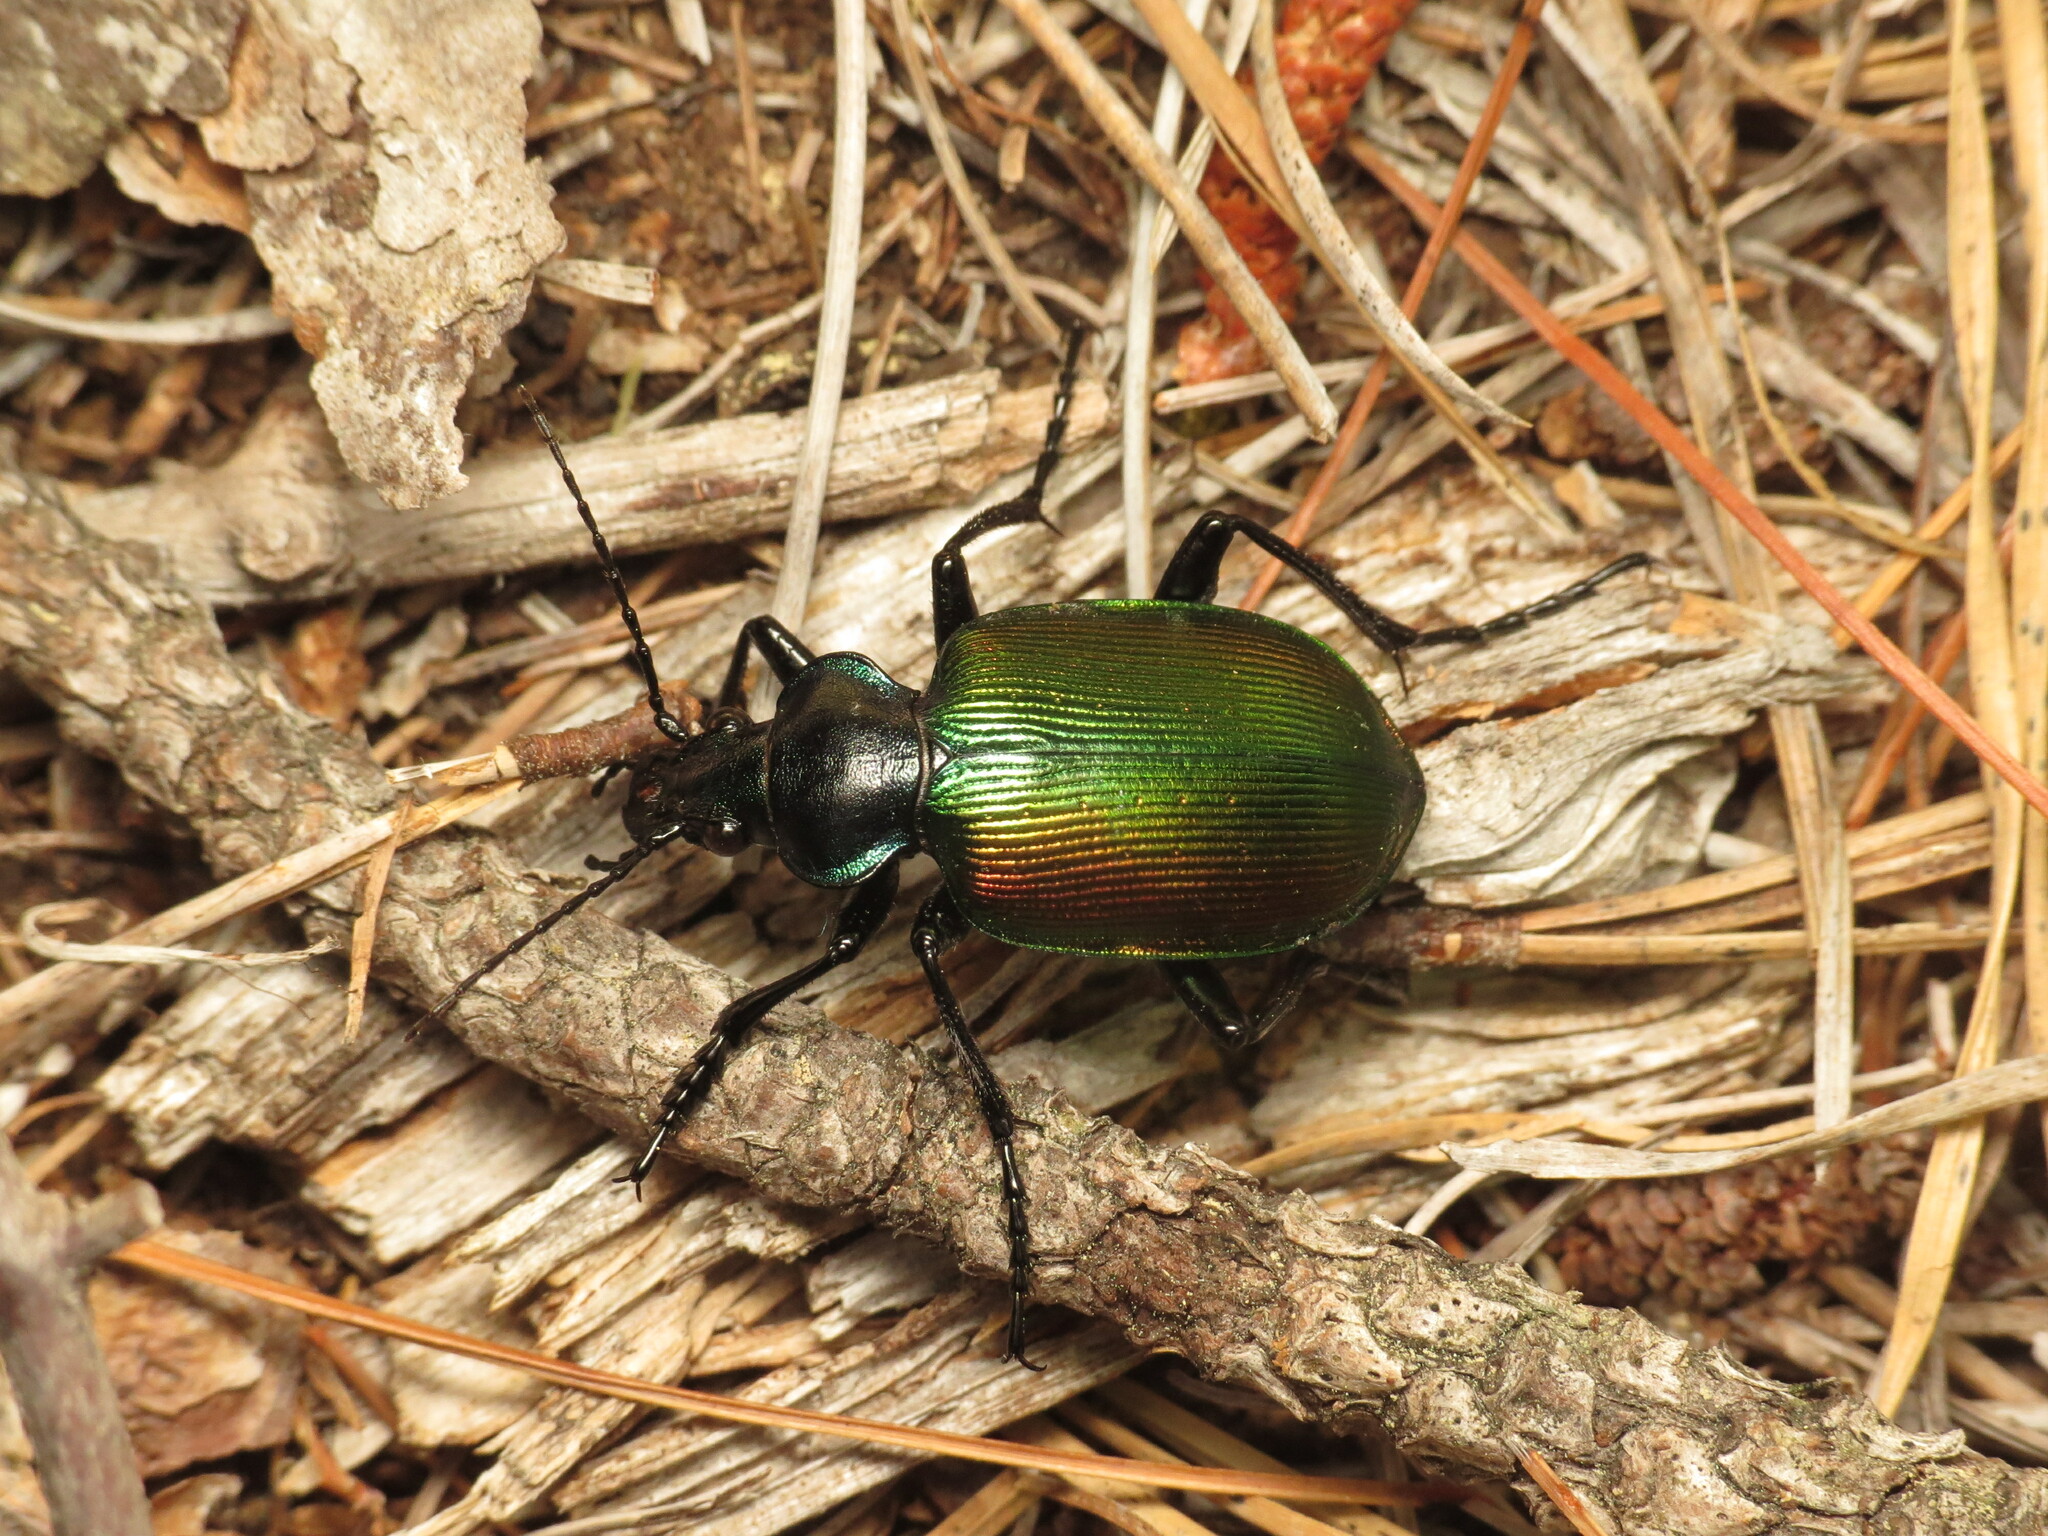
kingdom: Animalia
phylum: Arthropoda
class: Insecta
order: Coleoptera
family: Carabidae
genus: Calosoma
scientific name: Calosoma sycophanta
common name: Forest caterpillar hunter
